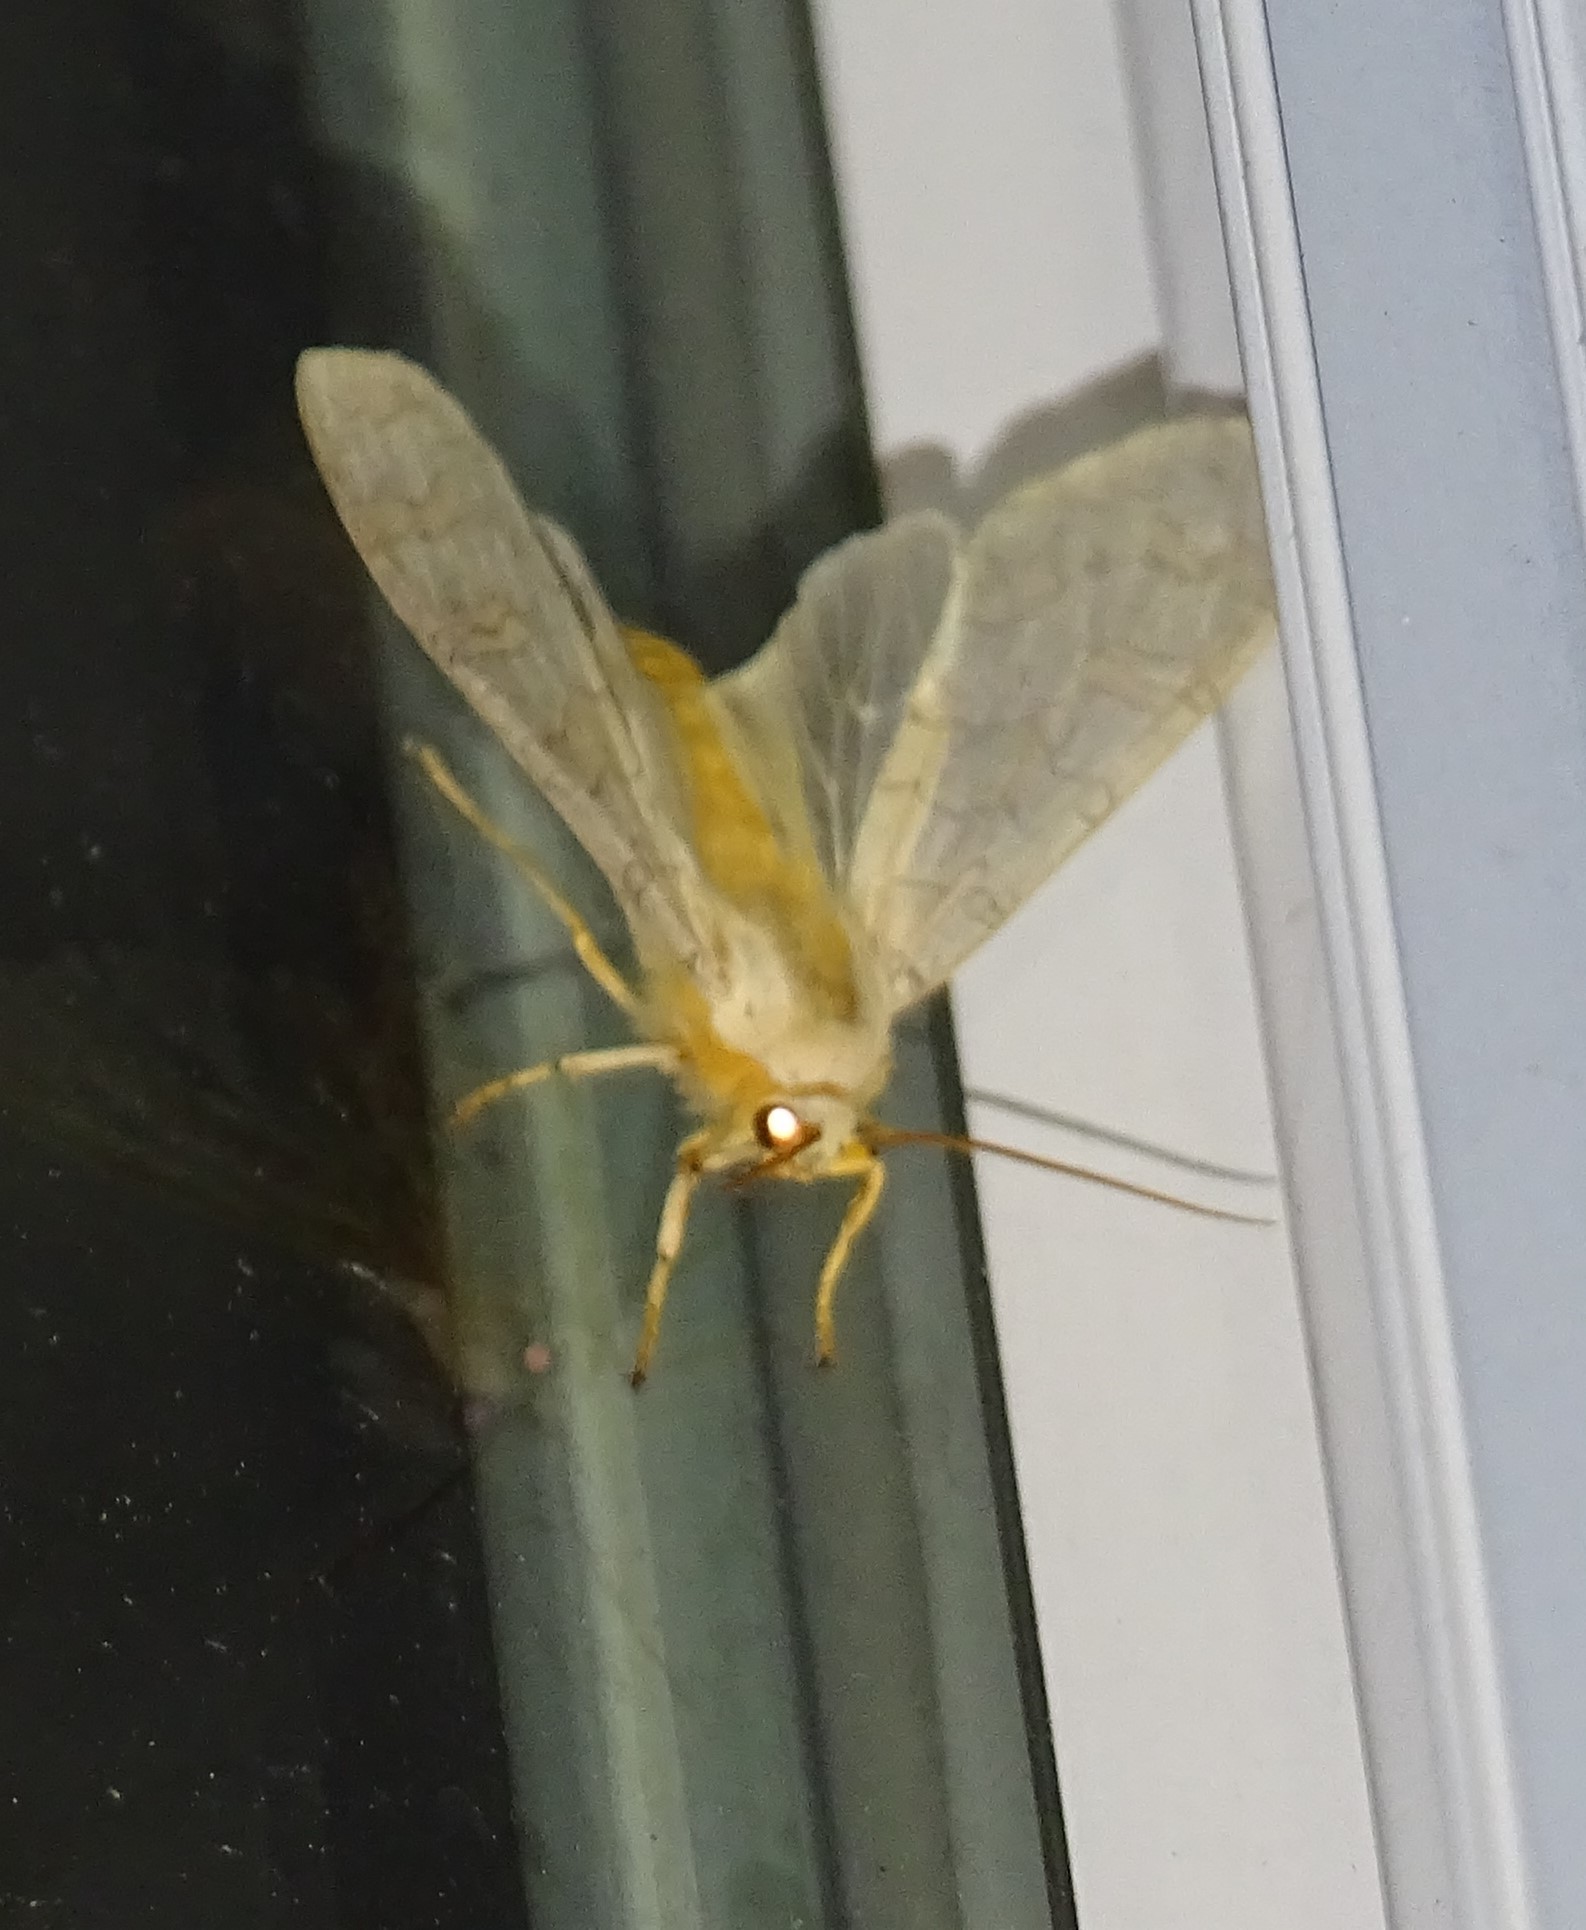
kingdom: Animalia
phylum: Arthropoda
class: Insecta
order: Lepidoptera
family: Erebidae
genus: Halysidota
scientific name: Halysidota
